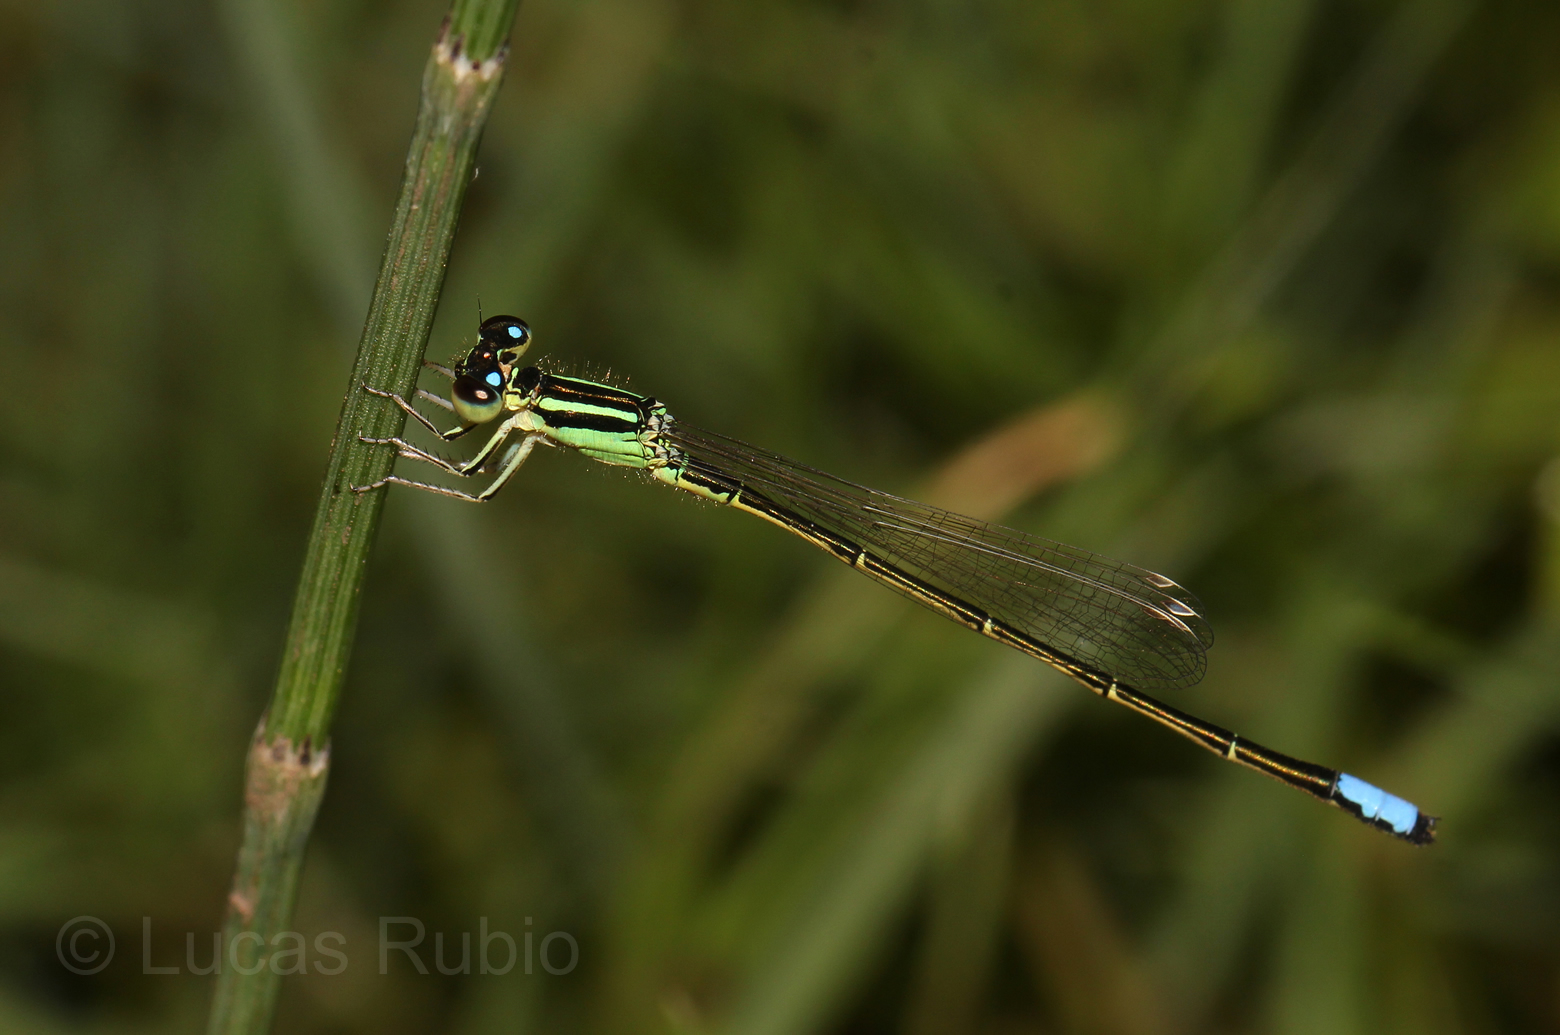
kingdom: Animalia
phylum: Arthropoda
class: Insecta
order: Odonata
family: Coenagrionidae
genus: Ischnura
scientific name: Ischnura ultima
